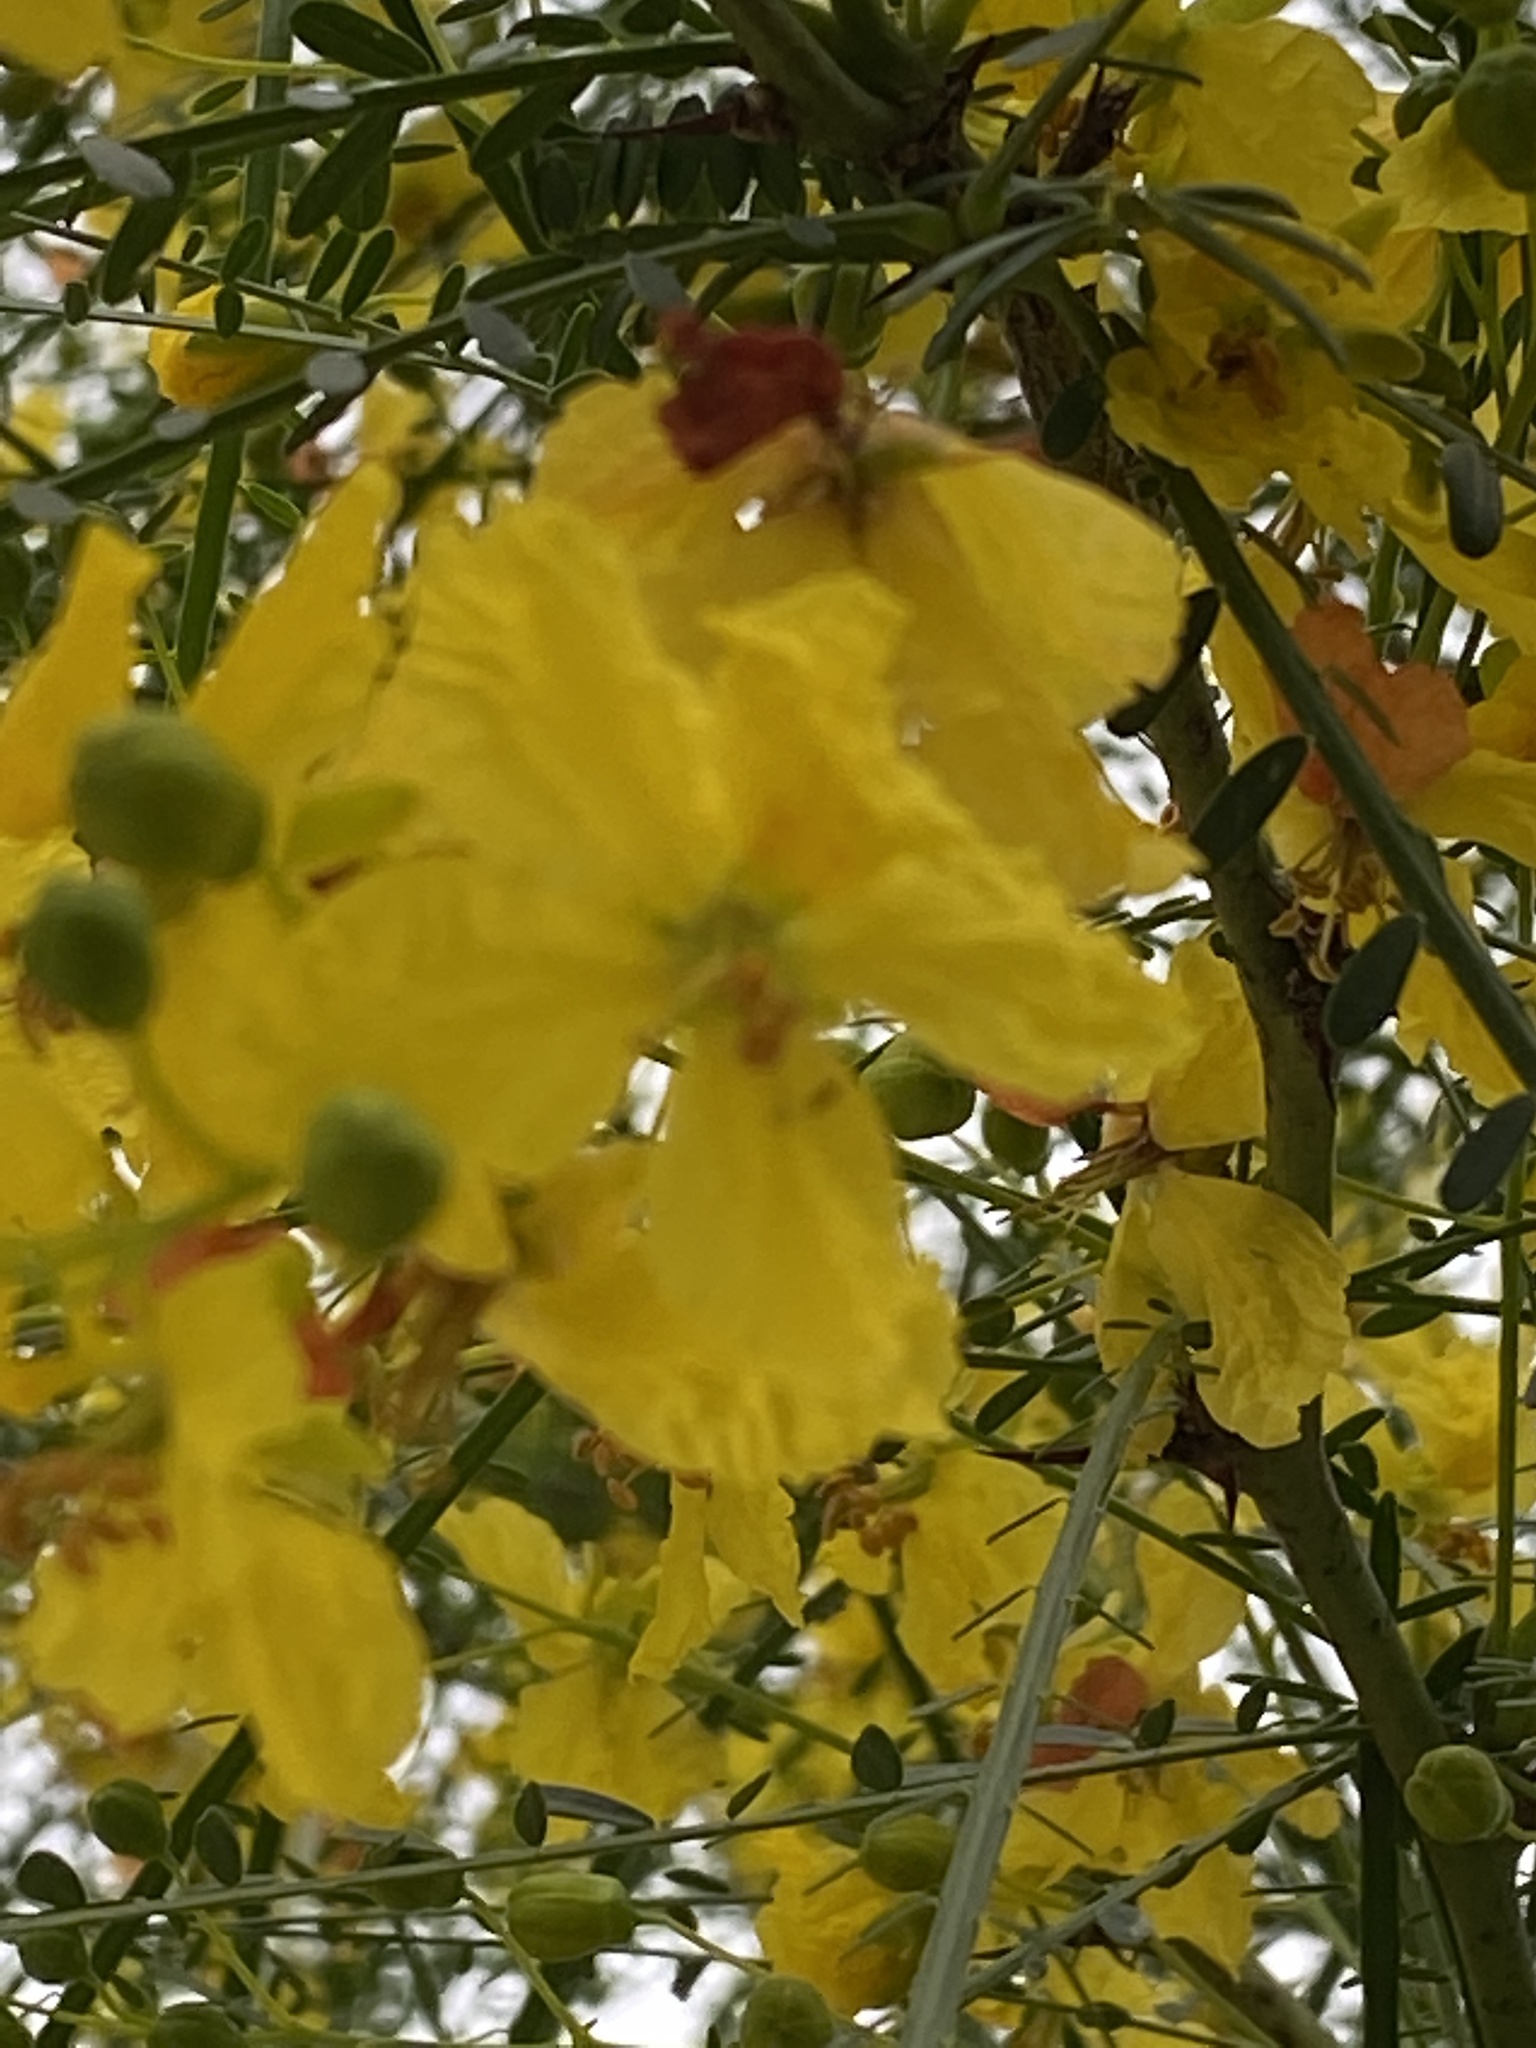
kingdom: Plantae
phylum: Tracheophyta
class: Magnoliopsida
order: Fabales
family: Fabaceae
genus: Parkinsonia
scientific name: Parkinsonia aculeata
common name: Jerusalem thorn
